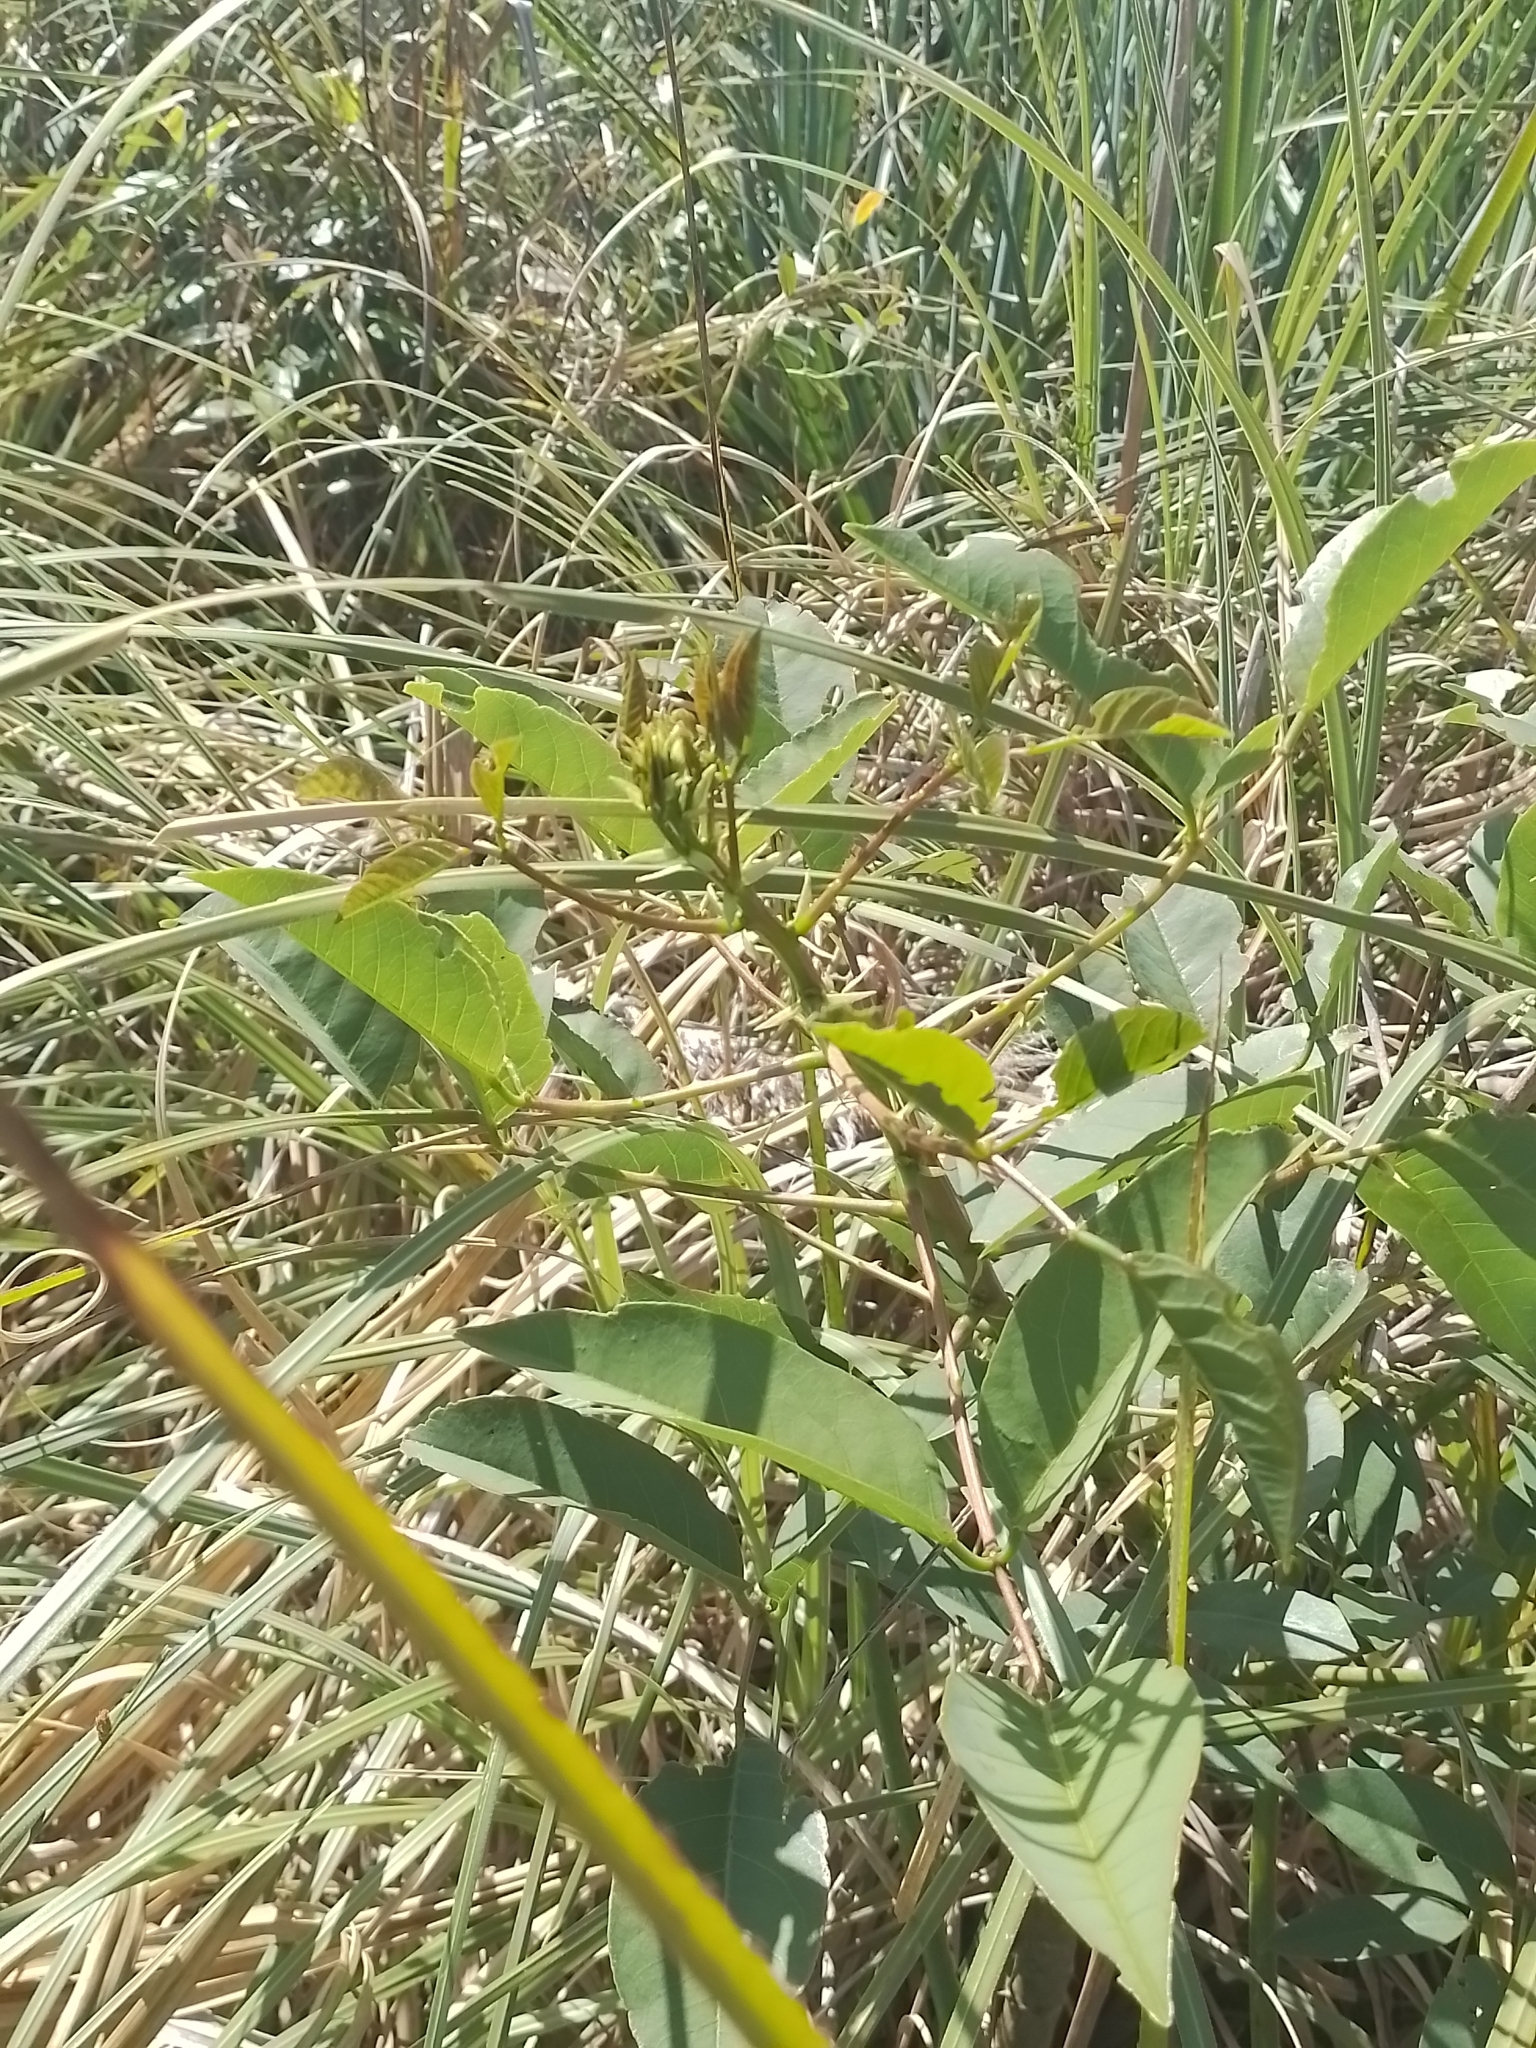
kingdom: Plantae
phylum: Tracheophyta
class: Magnoliopsida
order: Fabales
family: Fabaceae
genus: Erythrina
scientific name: Erythrina crista-galli
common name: Cockspur coral tree
